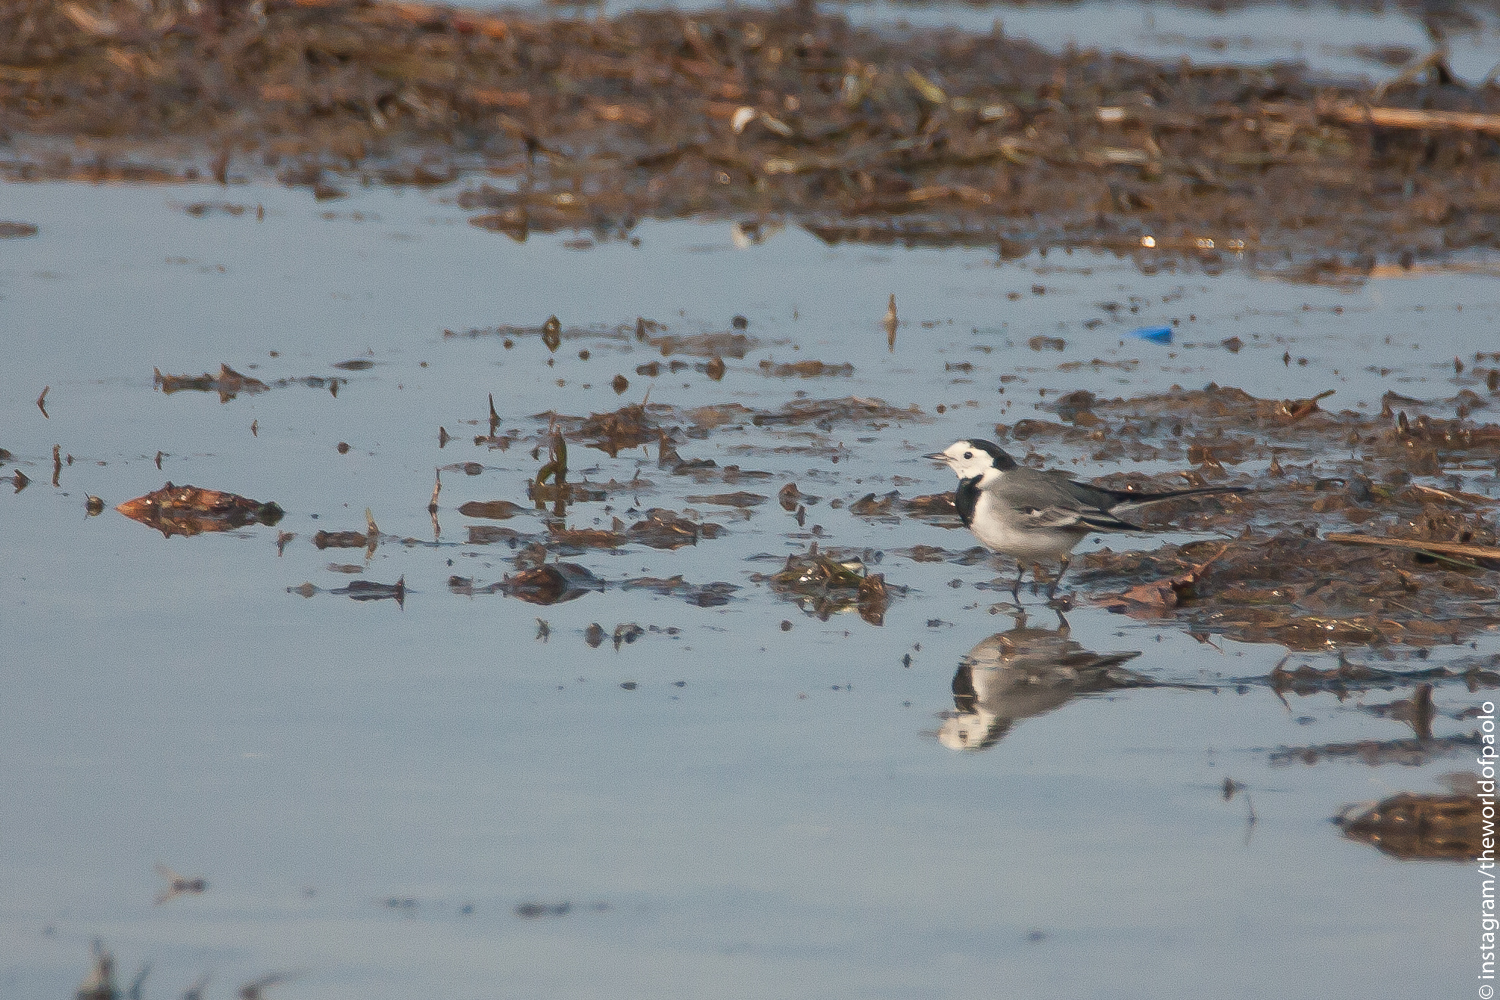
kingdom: Animalia
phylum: Chordata
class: Aves
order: Passeriformes
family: Motacillidae
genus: Motacilla
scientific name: Motacilla alba
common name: White wagtail
